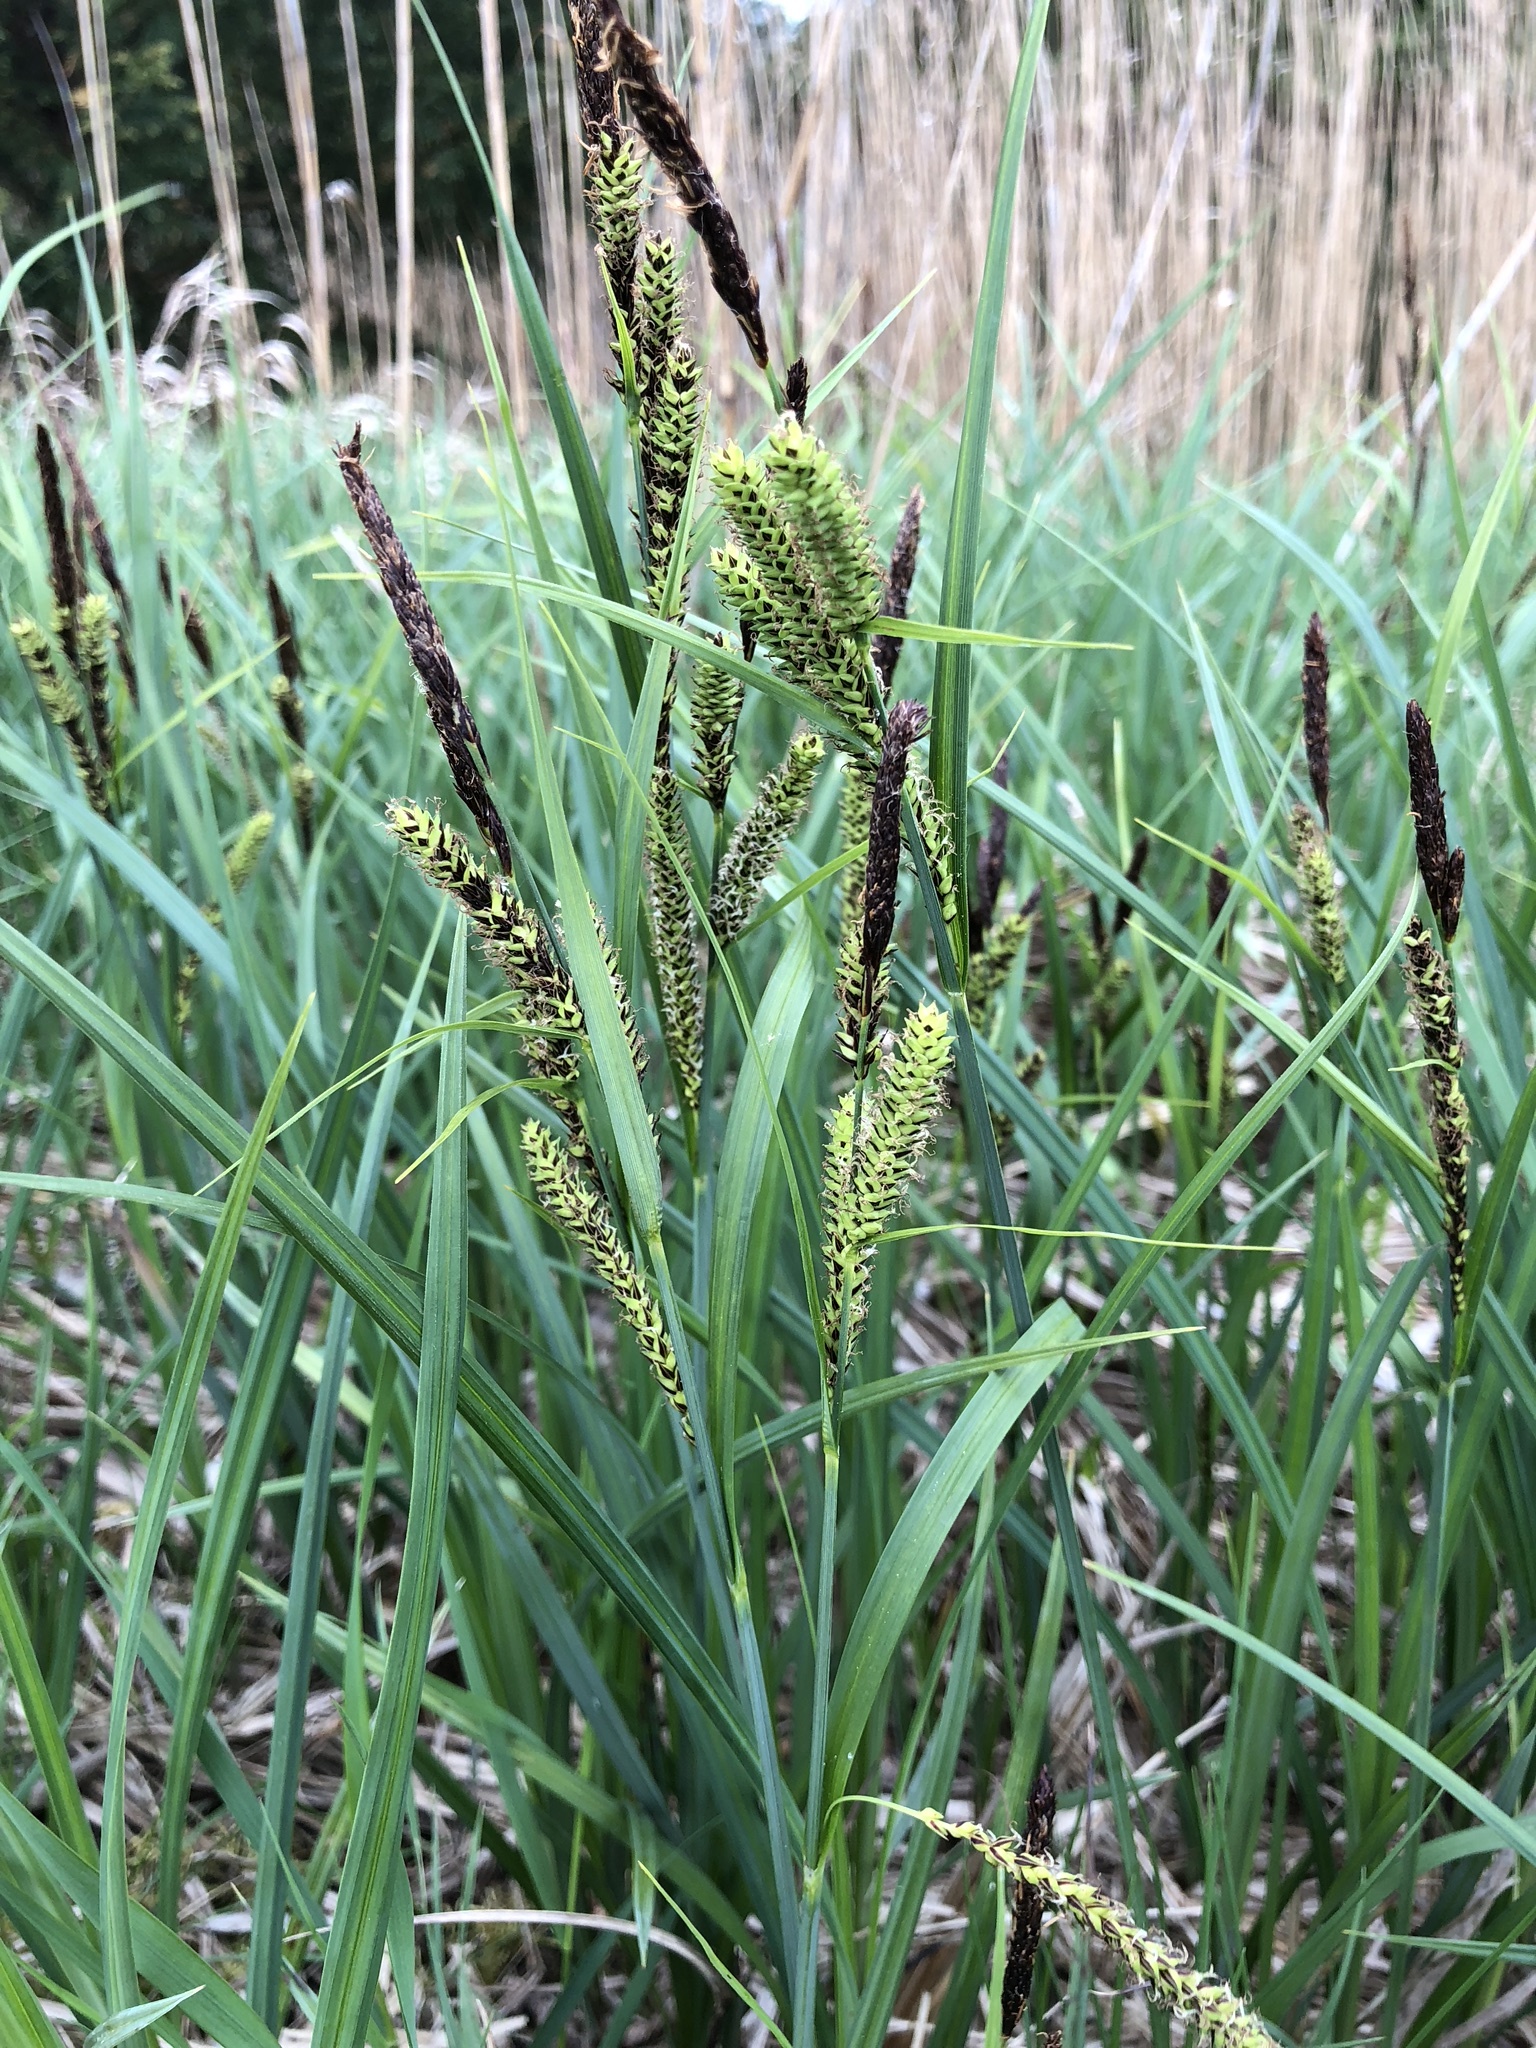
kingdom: Plantae
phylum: Tracheophyta
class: Liliopsida
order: Poales
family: Cyperaceae
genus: Carex
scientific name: Carex acutiformis
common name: Lesser pond-sedge
